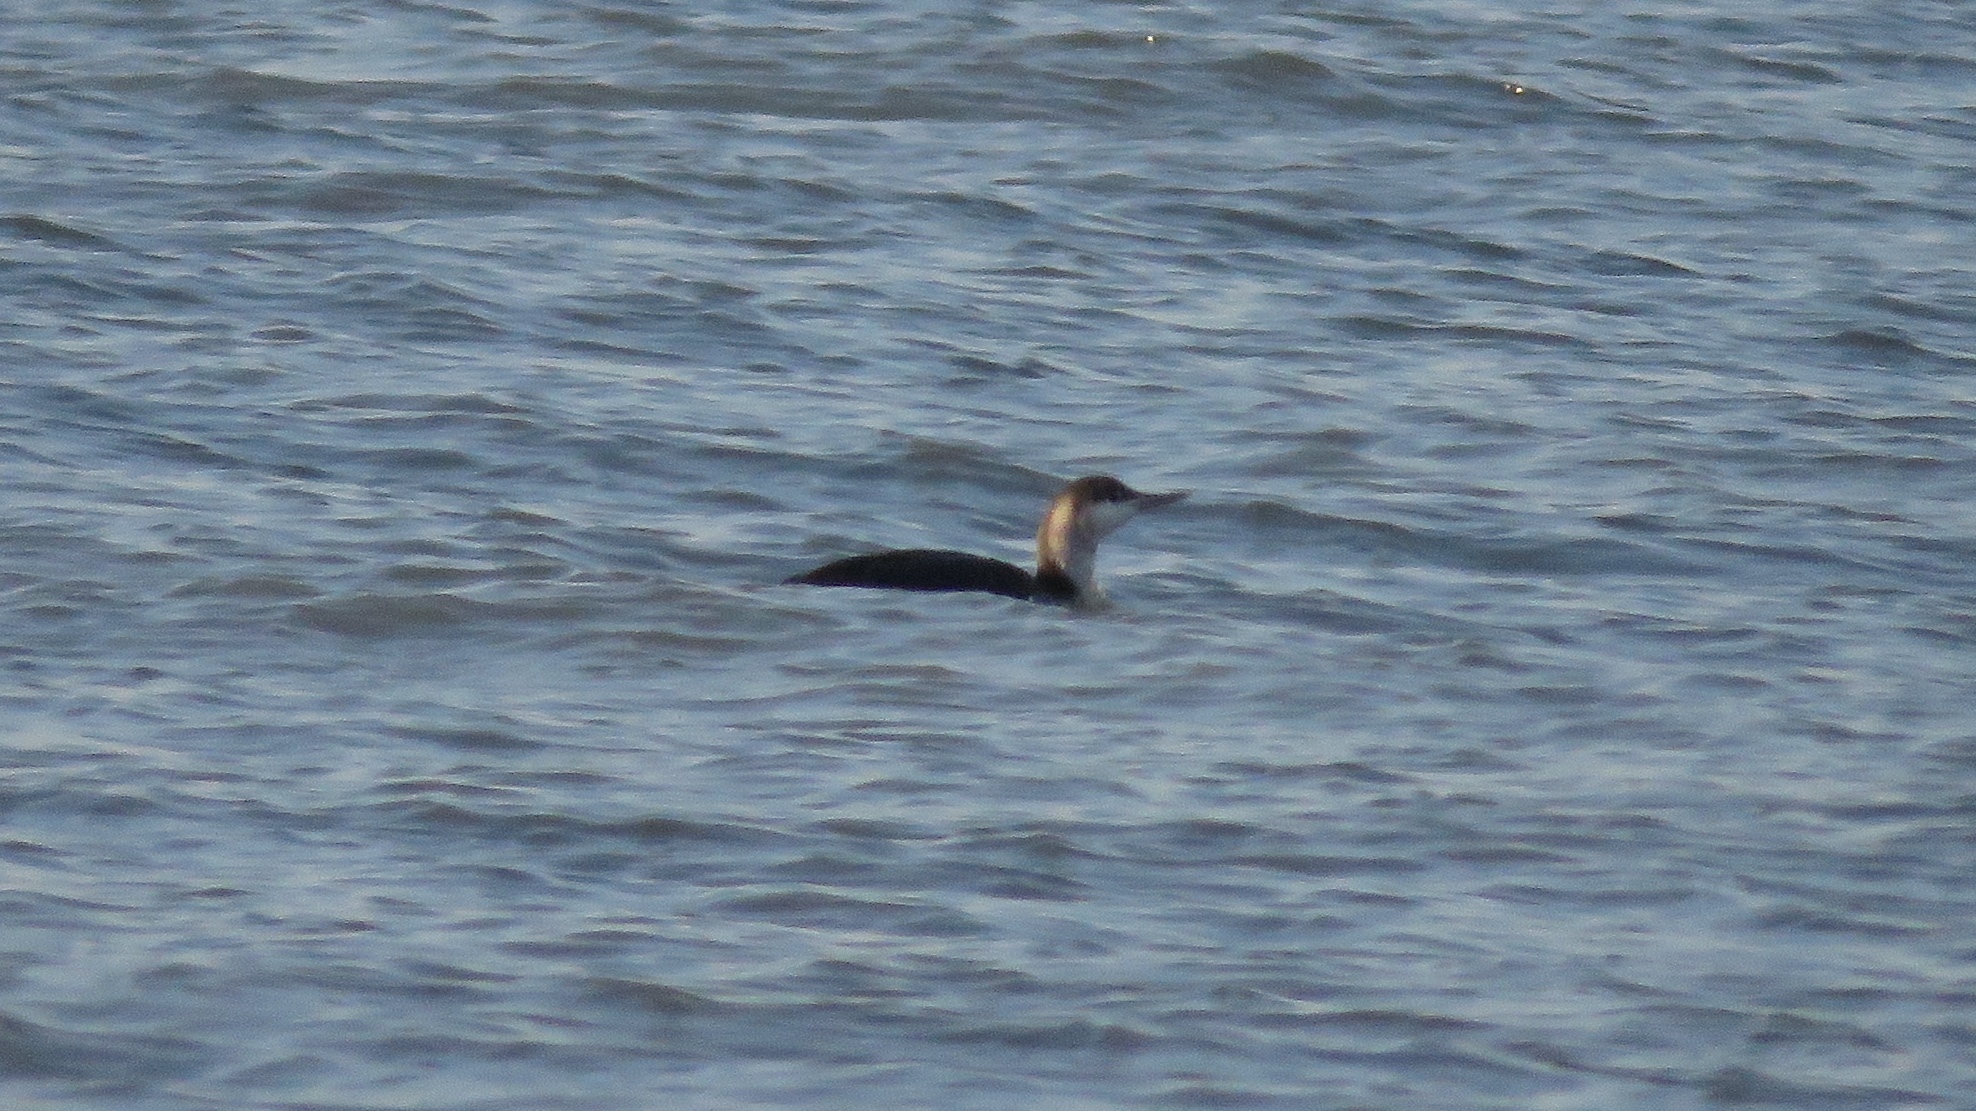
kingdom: Animalia
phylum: Chordata
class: Aves
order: Gaviiformes
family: Gaviidae
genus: Gavia
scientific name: Gavia stellata
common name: Red-throated loon
